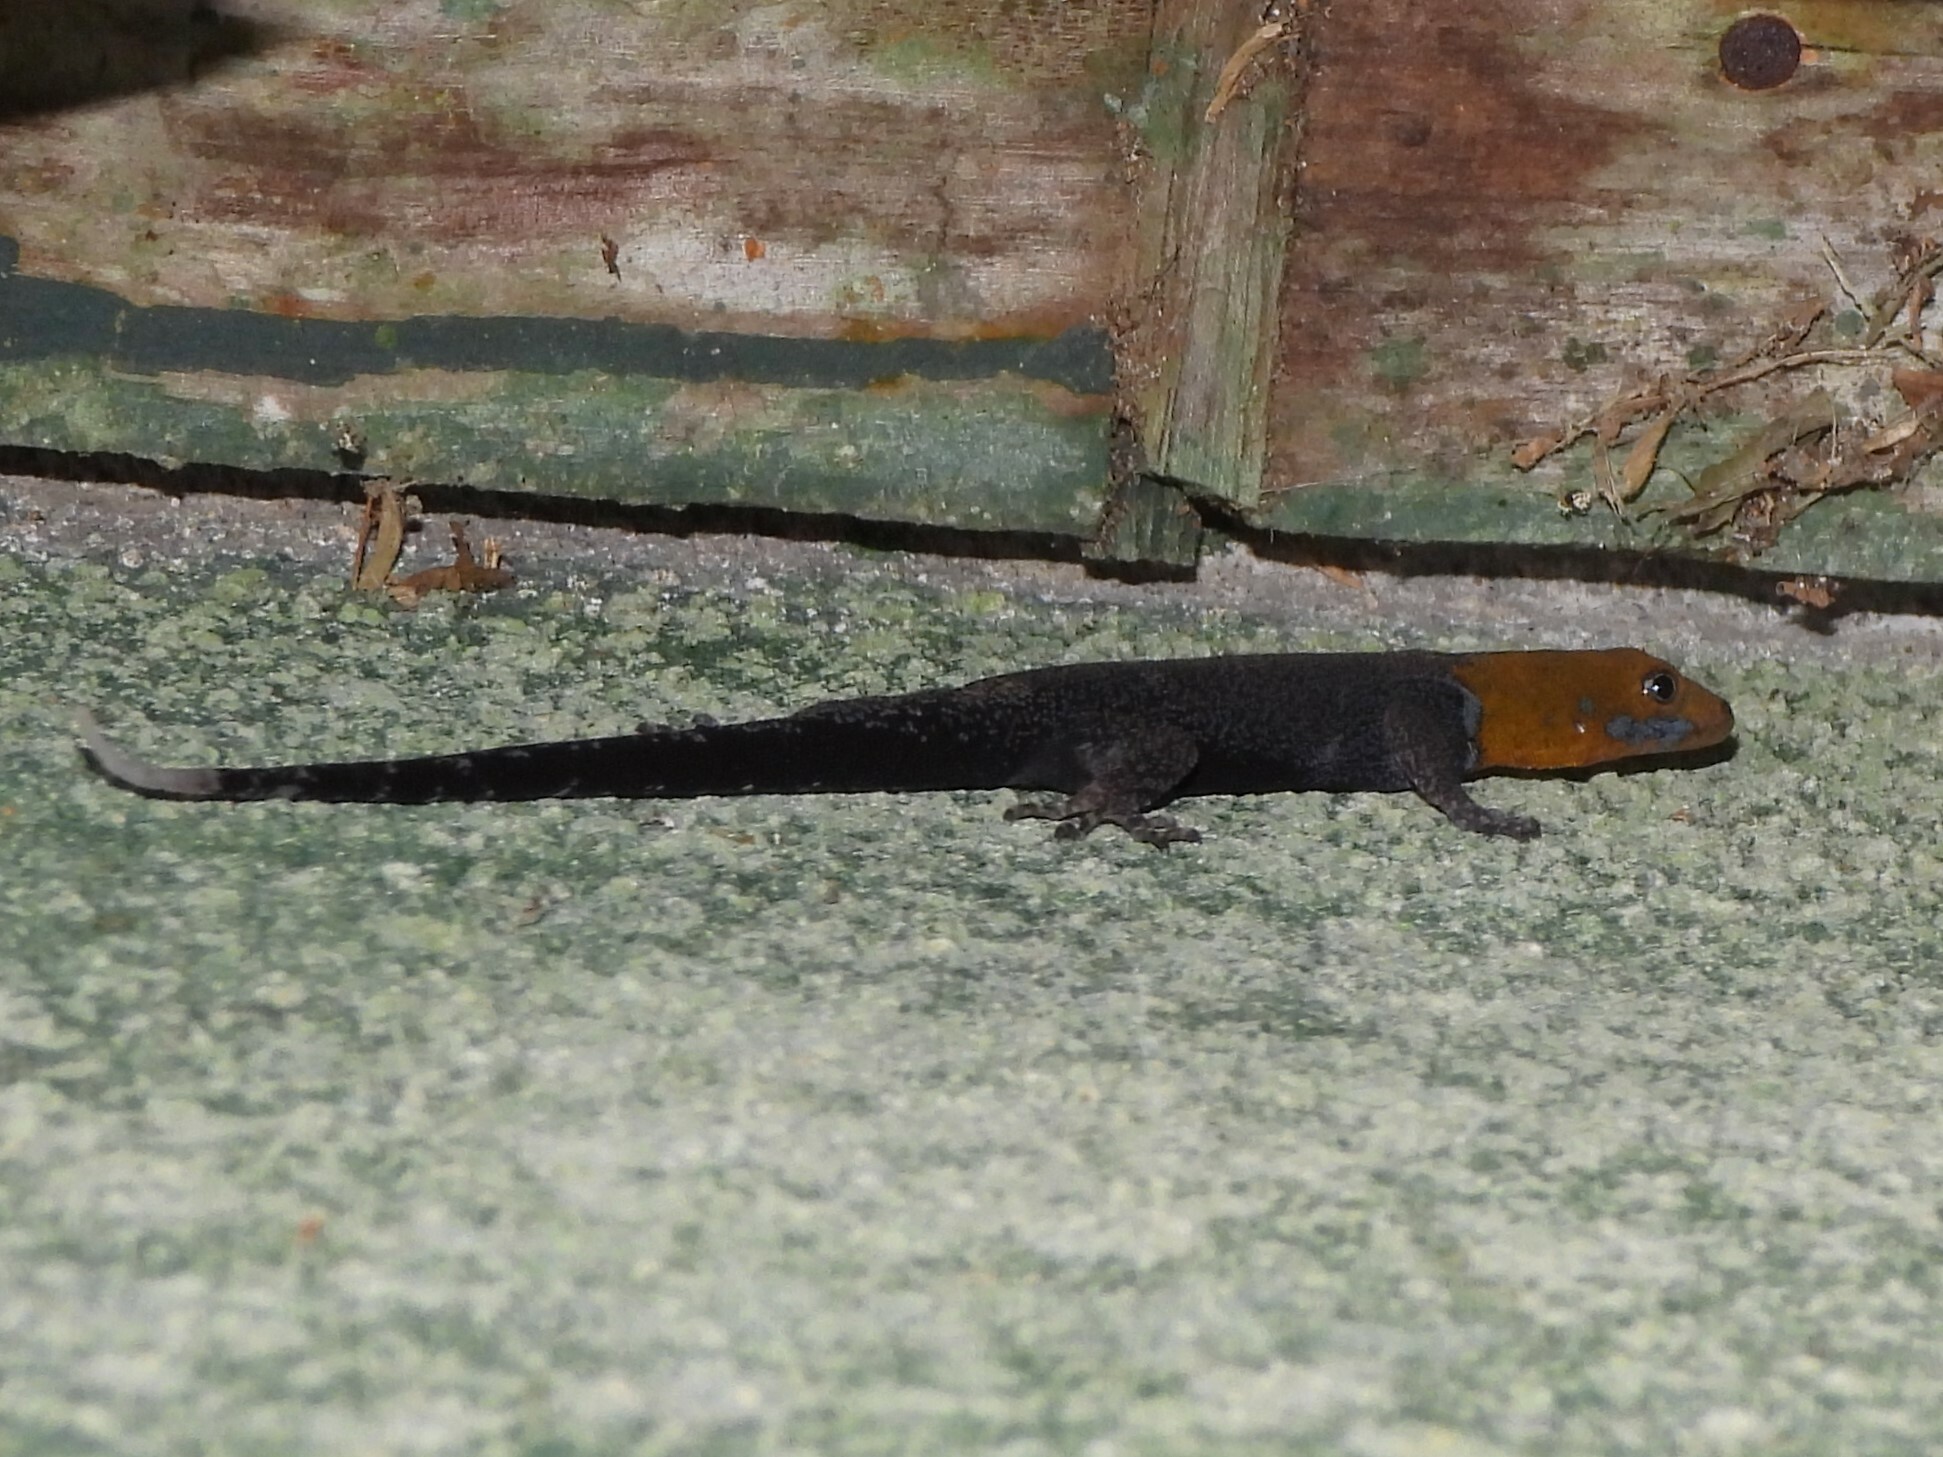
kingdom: Animalia
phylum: Chordata
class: Squamata
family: Sphaerodactylidae
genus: Gonatodes
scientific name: Gonatodes albogularis
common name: Yellow-headed gecko
